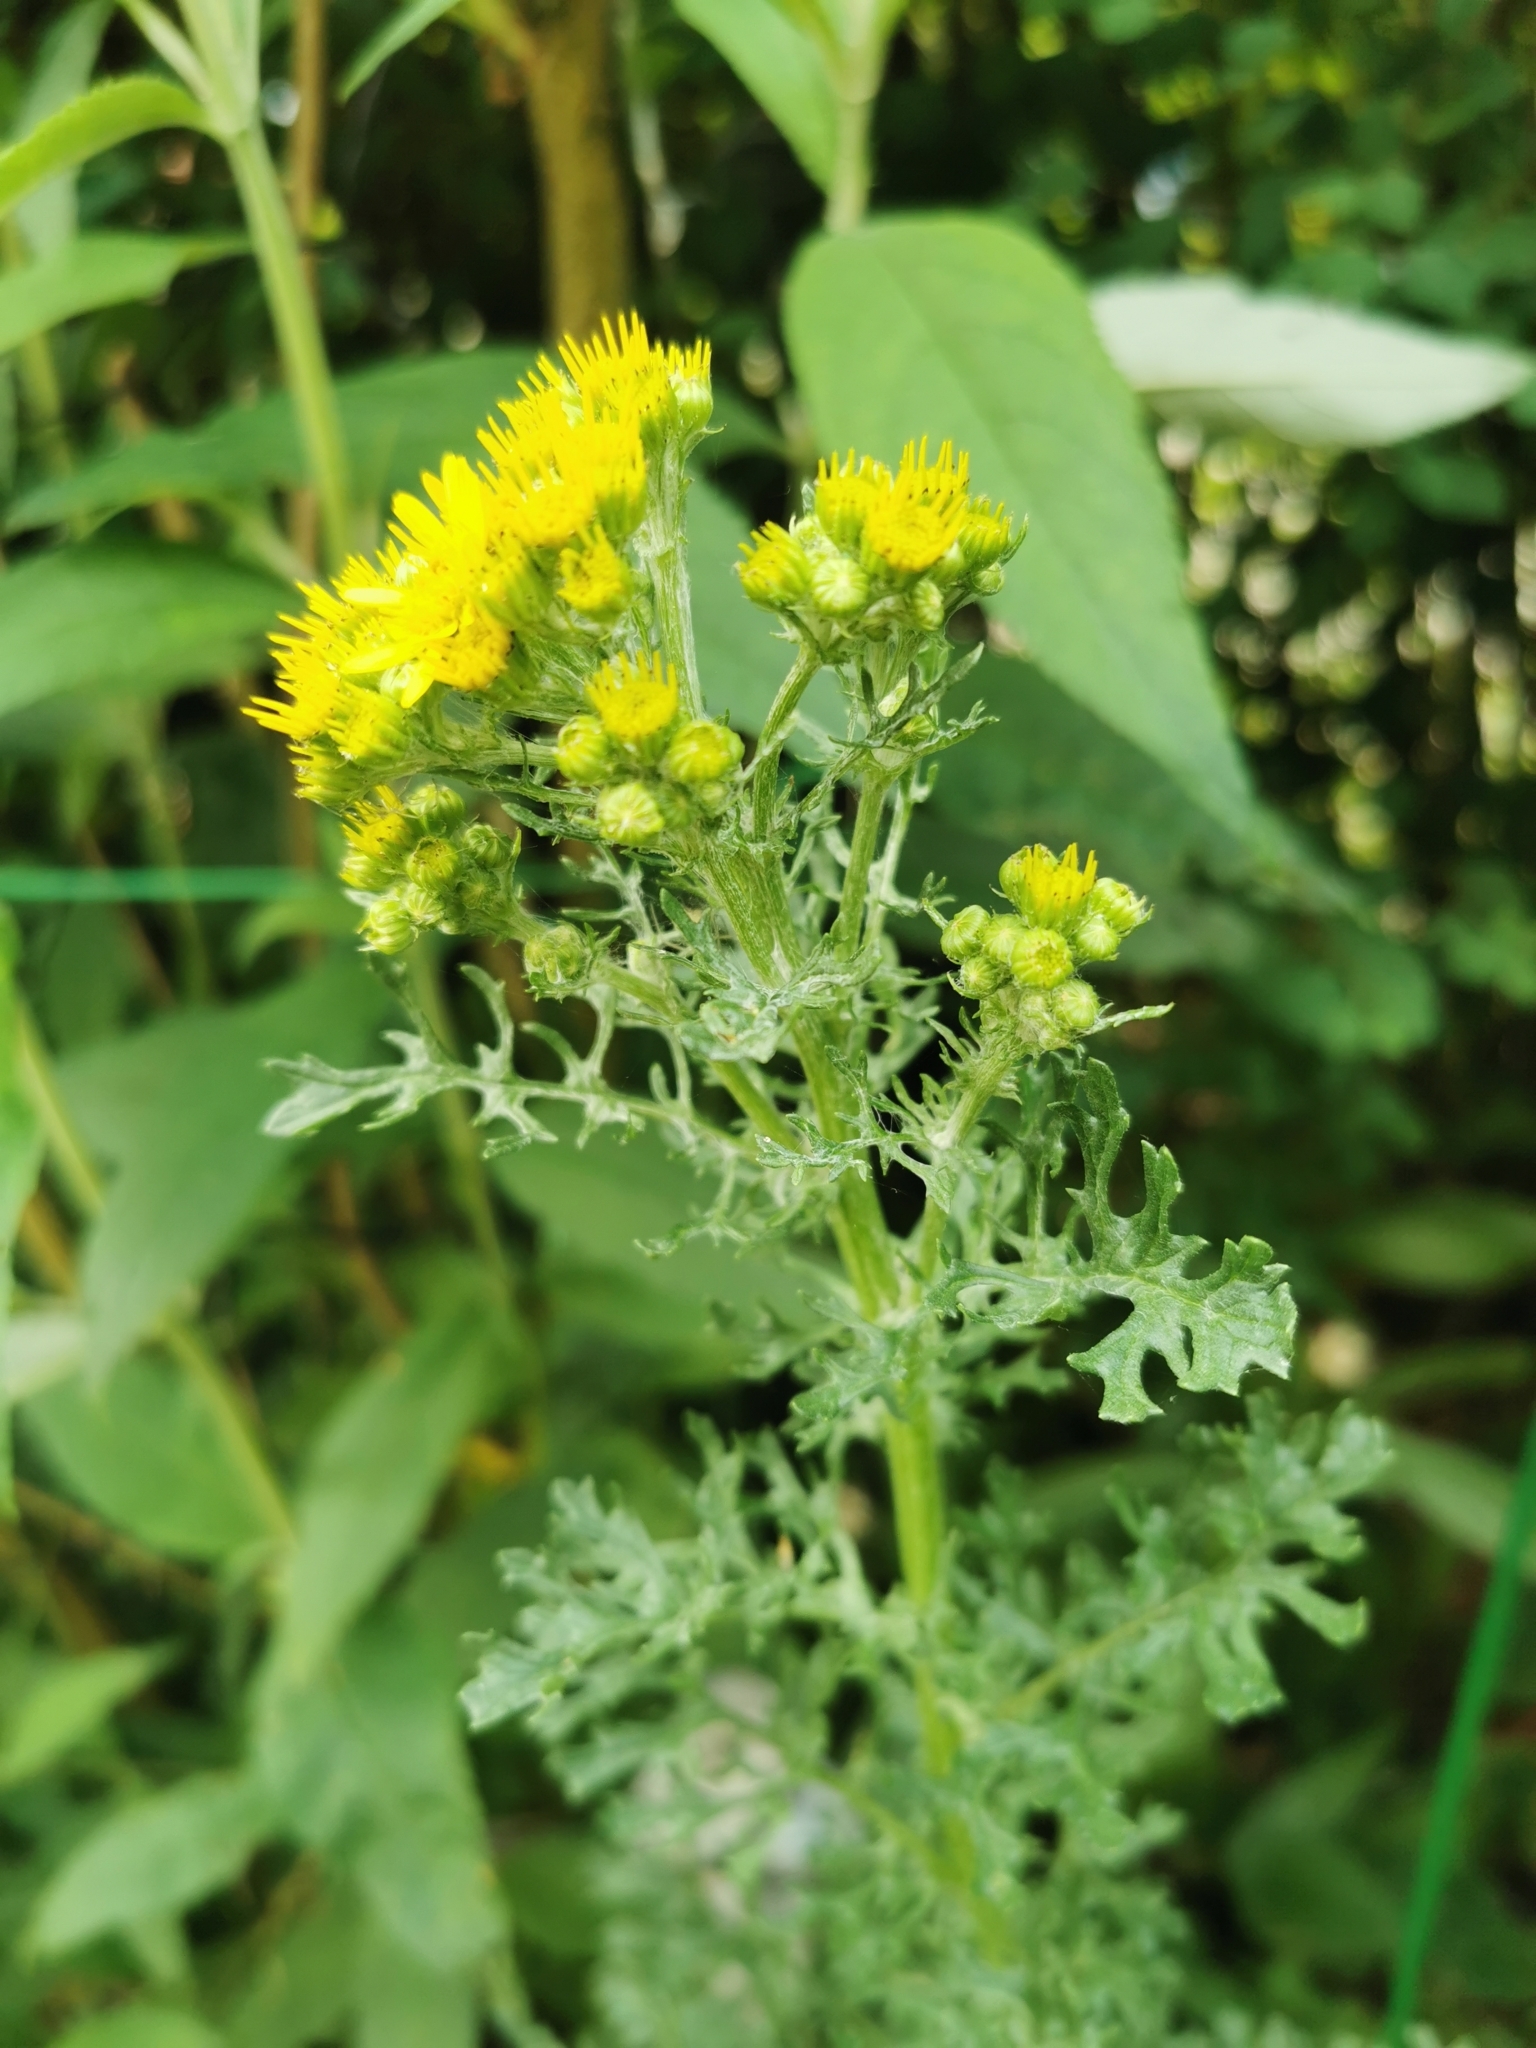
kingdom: Plantae
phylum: Tracheophyta
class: Magnoliopsida
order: Asterales
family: Asteraceae
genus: Jacobaea
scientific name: Jacobaea vulgaris
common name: Stinking willie
